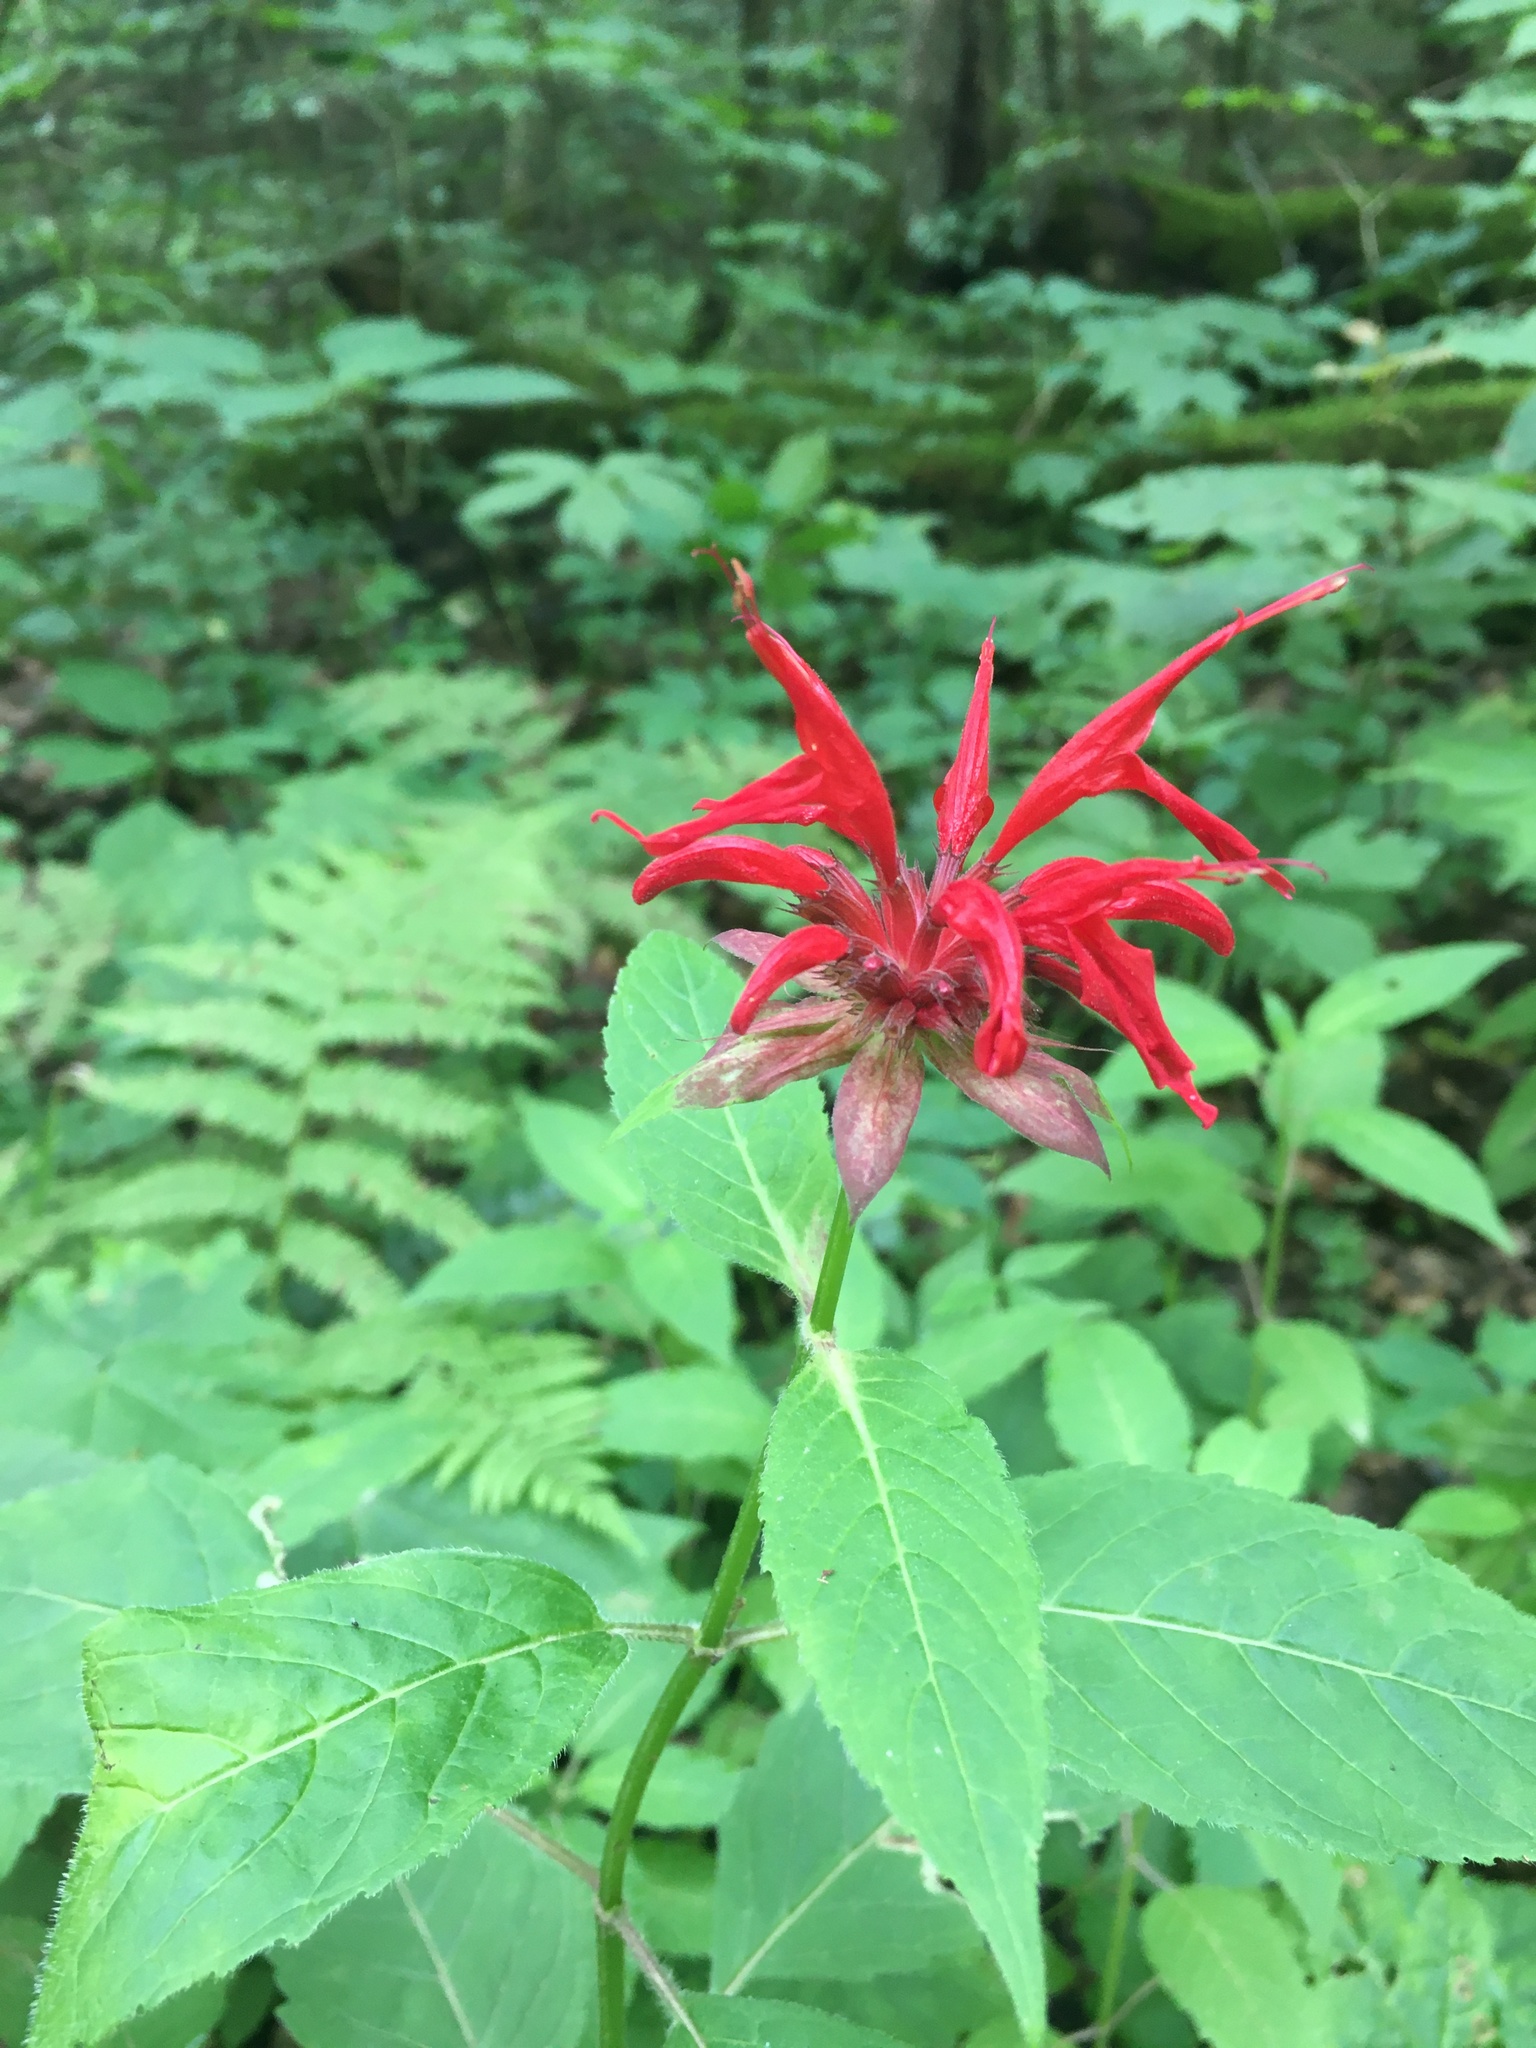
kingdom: Plantae
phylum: Tracheophyta
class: Magnoliopsida
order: Lamiales
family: Lamiaceae
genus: Monarda
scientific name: Monarda didyma
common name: Beebalm
